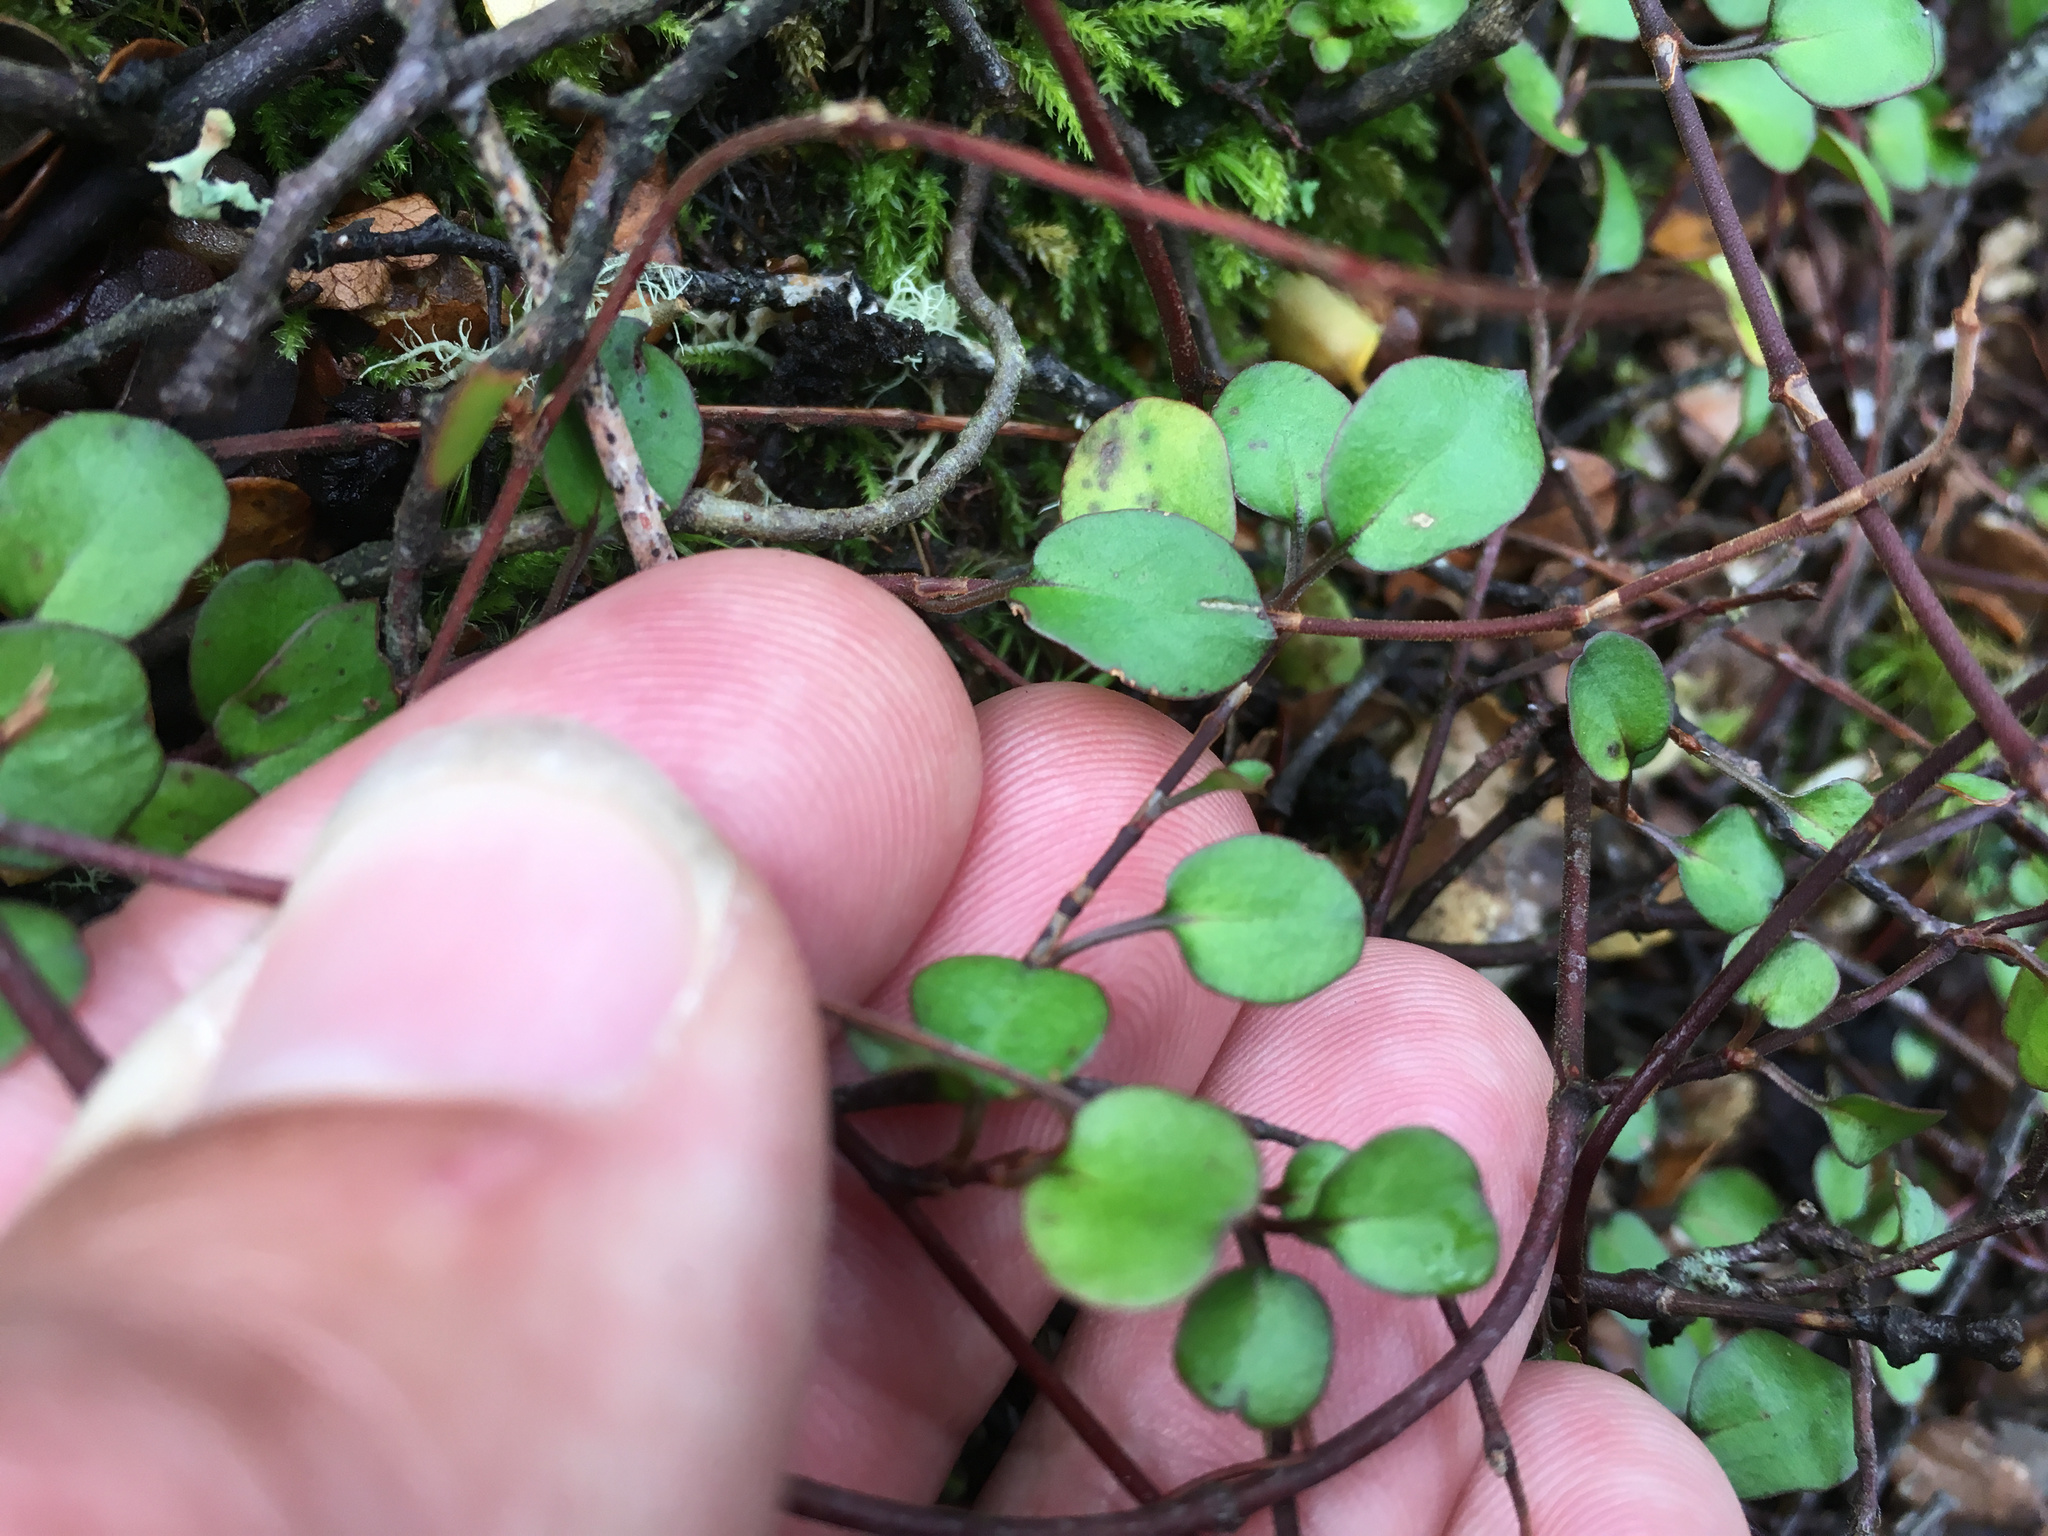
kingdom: Plantae
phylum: Tracheophyta
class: Magnoliopsida
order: Caryophyllales
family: Polygonaceae
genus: Muehlenbeckia
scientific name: Muehlenbeckia complexa
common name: Wireplant
